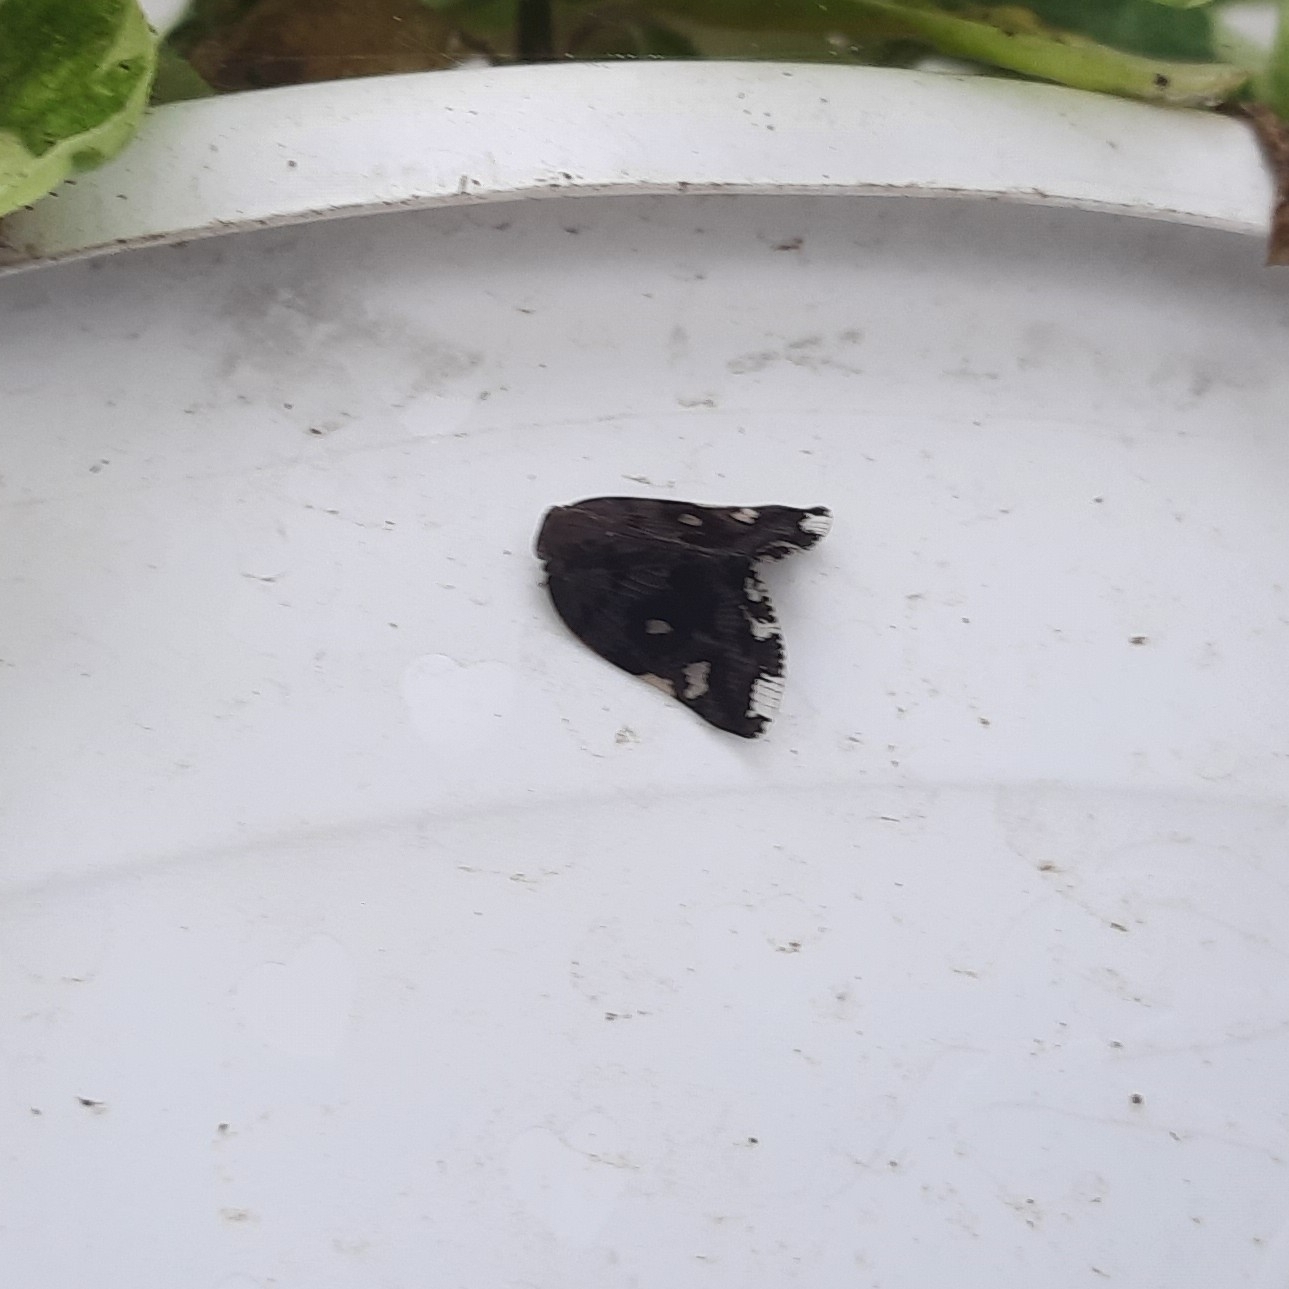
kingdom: Animalia
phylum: Arthropoda
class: Insecta
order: Hemiptera
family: Ricaniidae
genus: Ricania
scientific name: Ricania speculum
